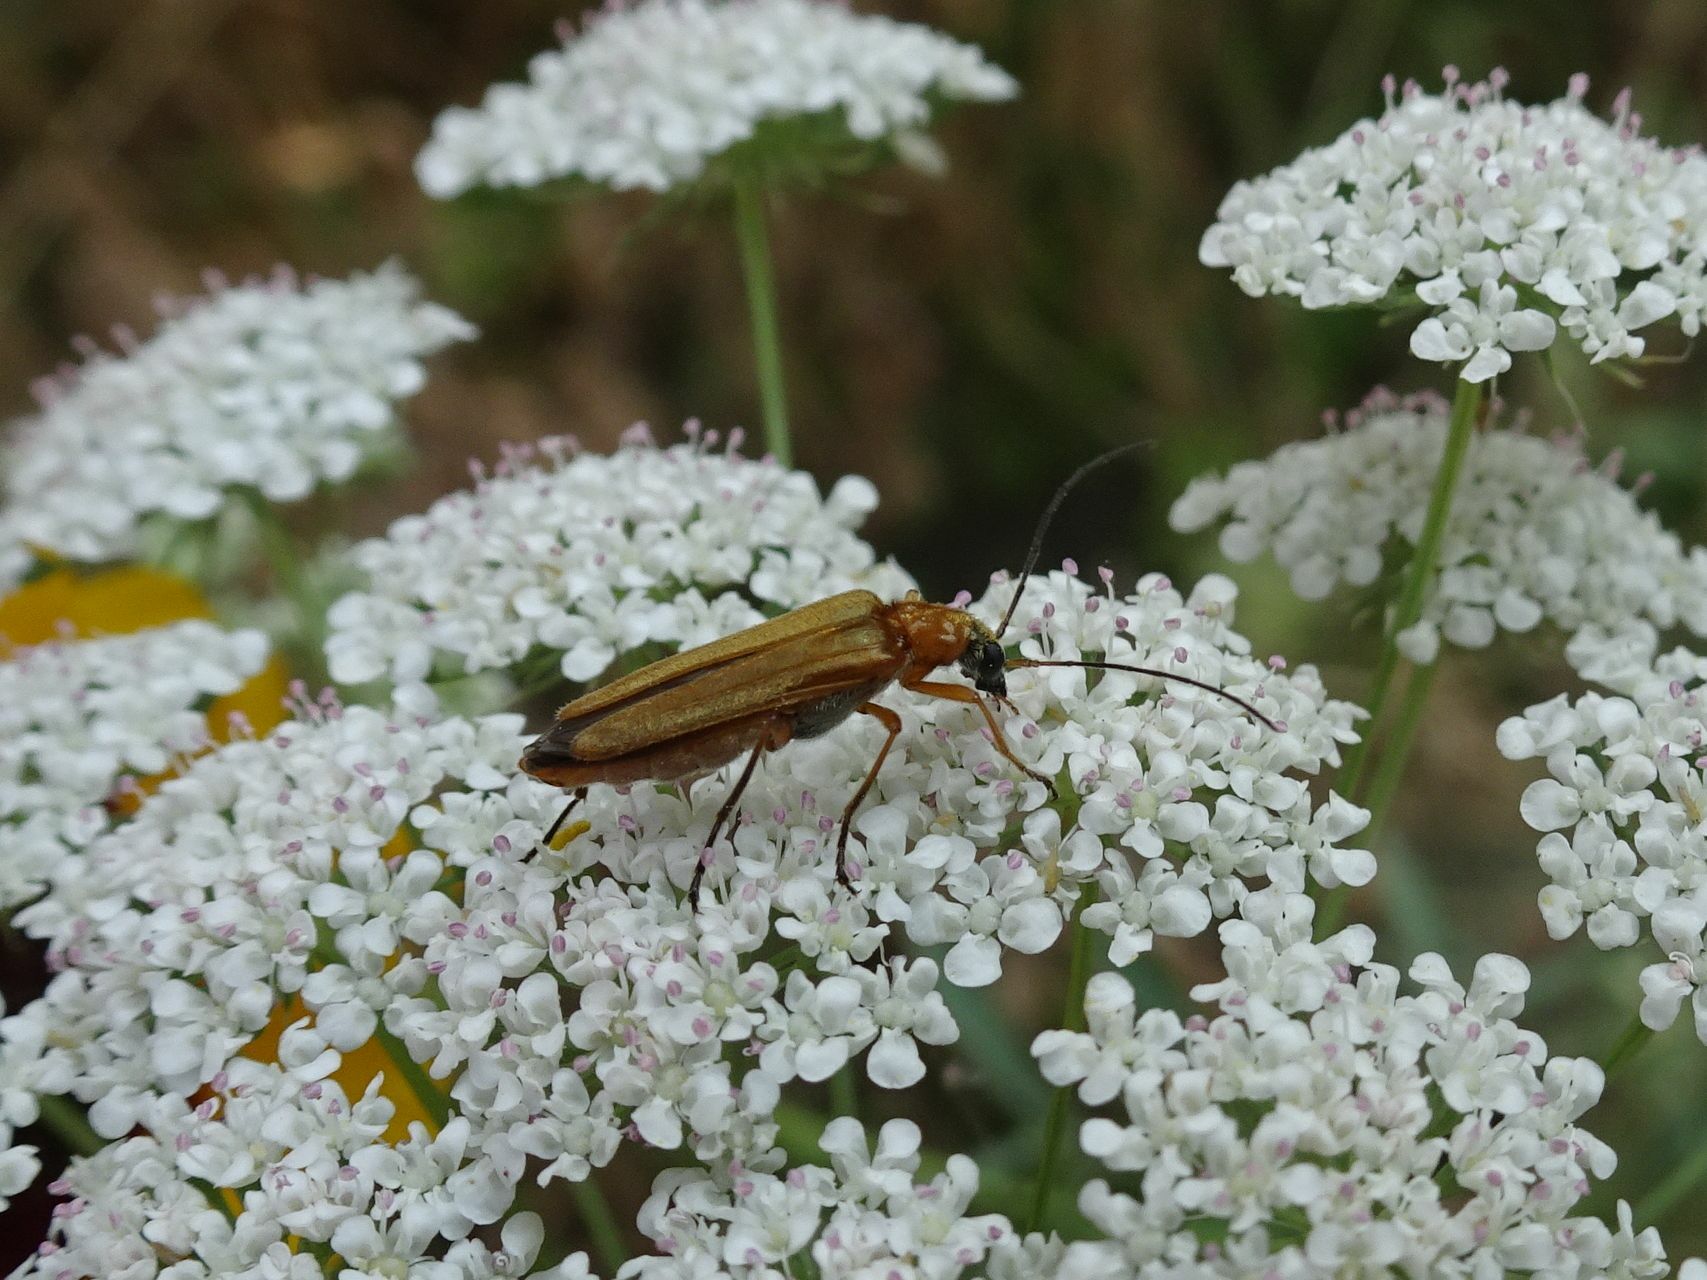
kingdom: Animalia
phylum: Arthropoda
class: Insecta
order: Coleoptera
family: Oedemeridae
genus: Oedemera
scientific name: Oedemera podagrariae
